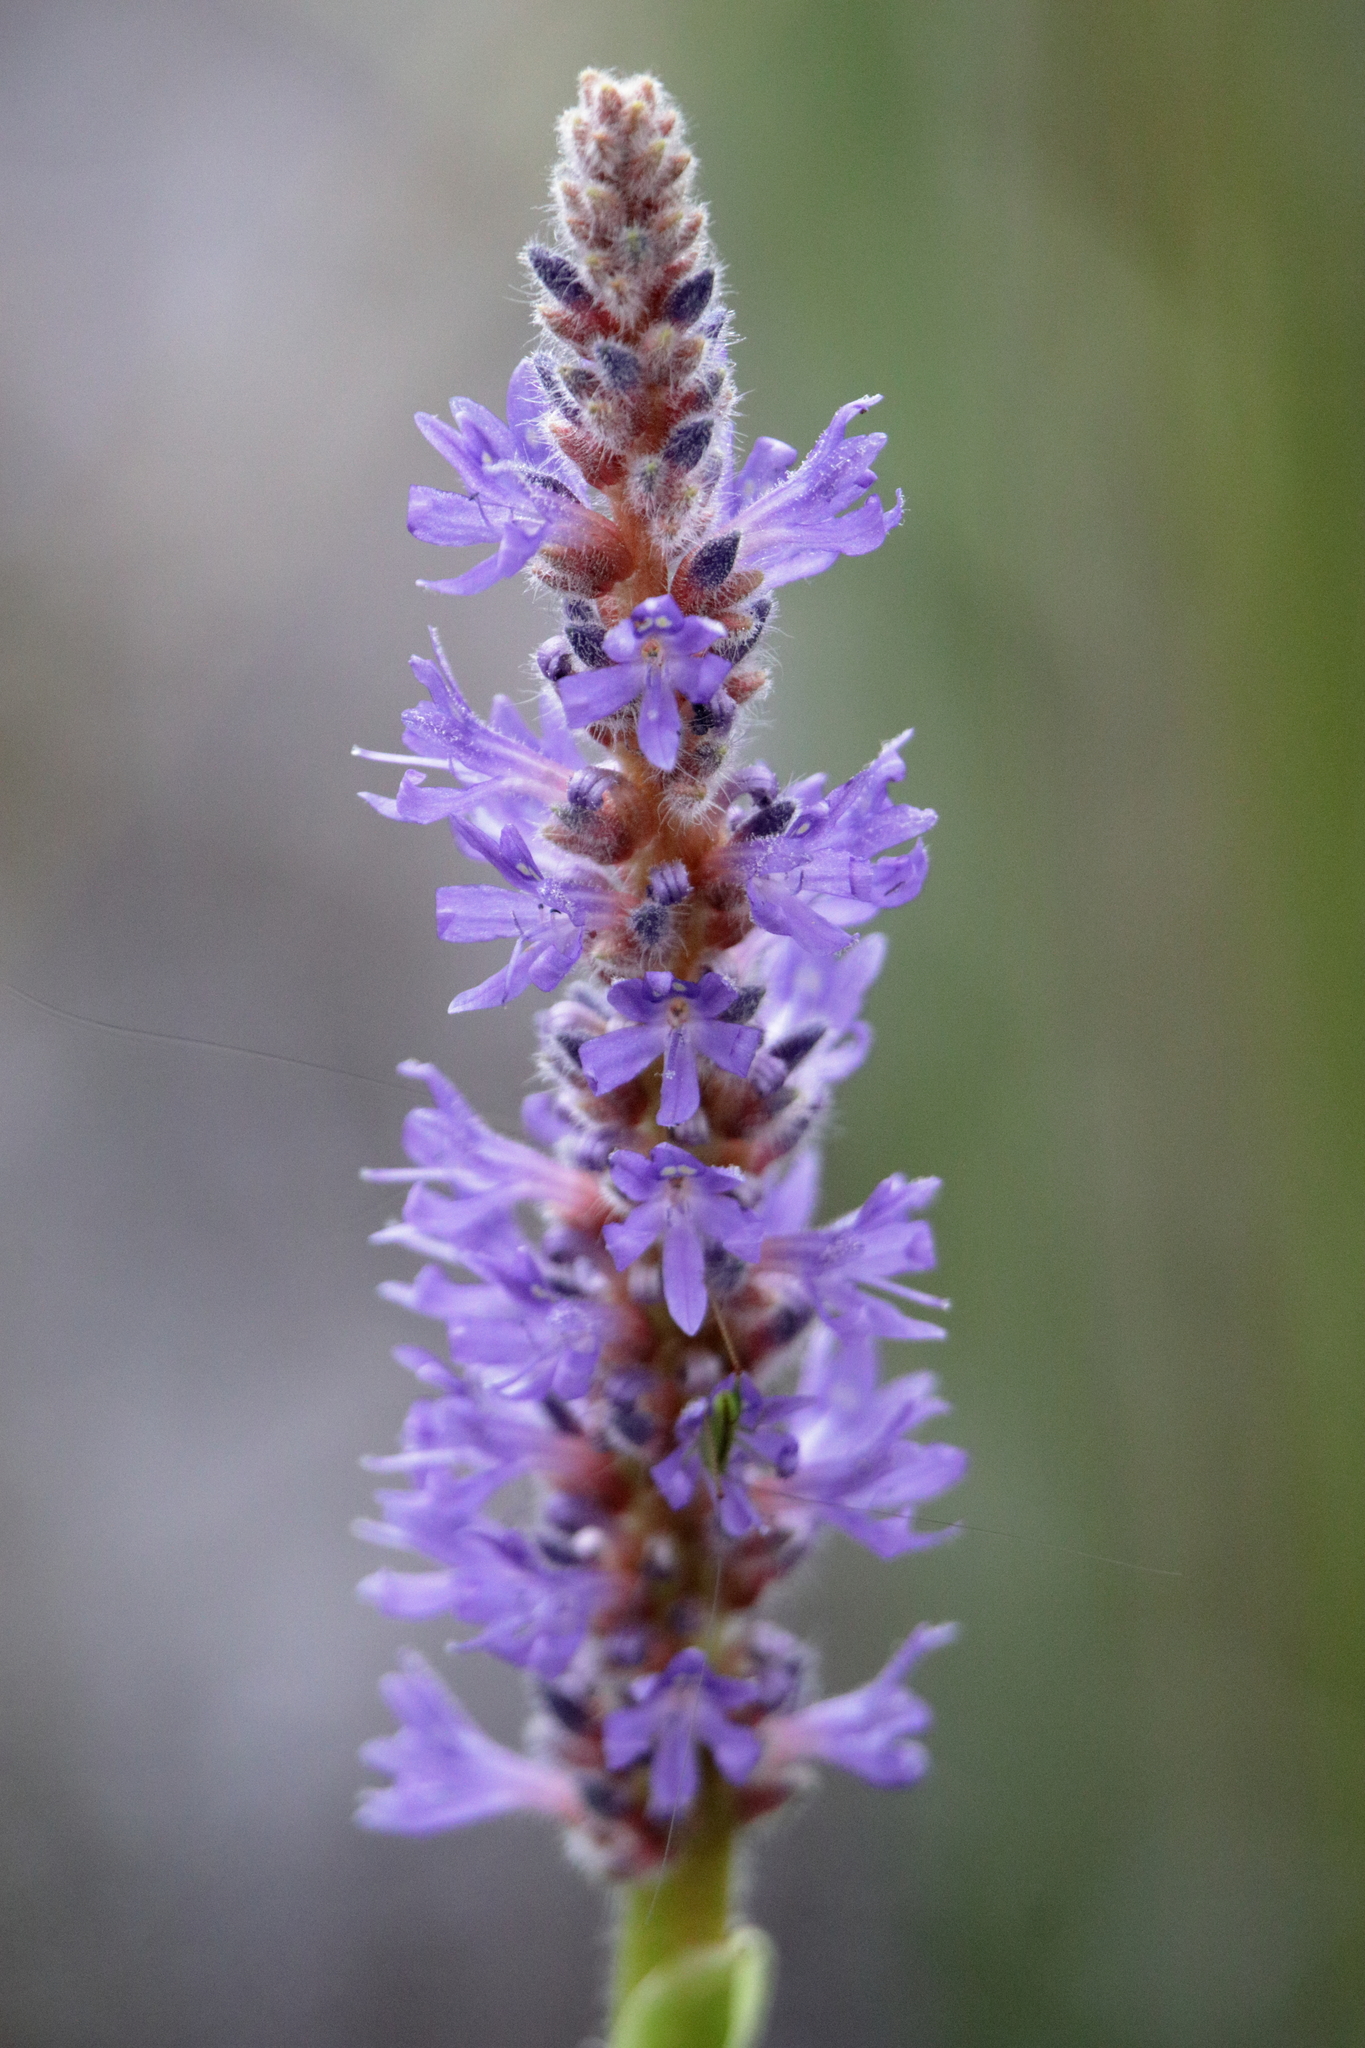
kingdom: Plantae
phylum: Tracheophyta
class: Liliopsida
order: Commelinales
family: Pontederiaceae
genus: Pontederia
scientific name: Pontederia cordata
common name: Pickerelweed
